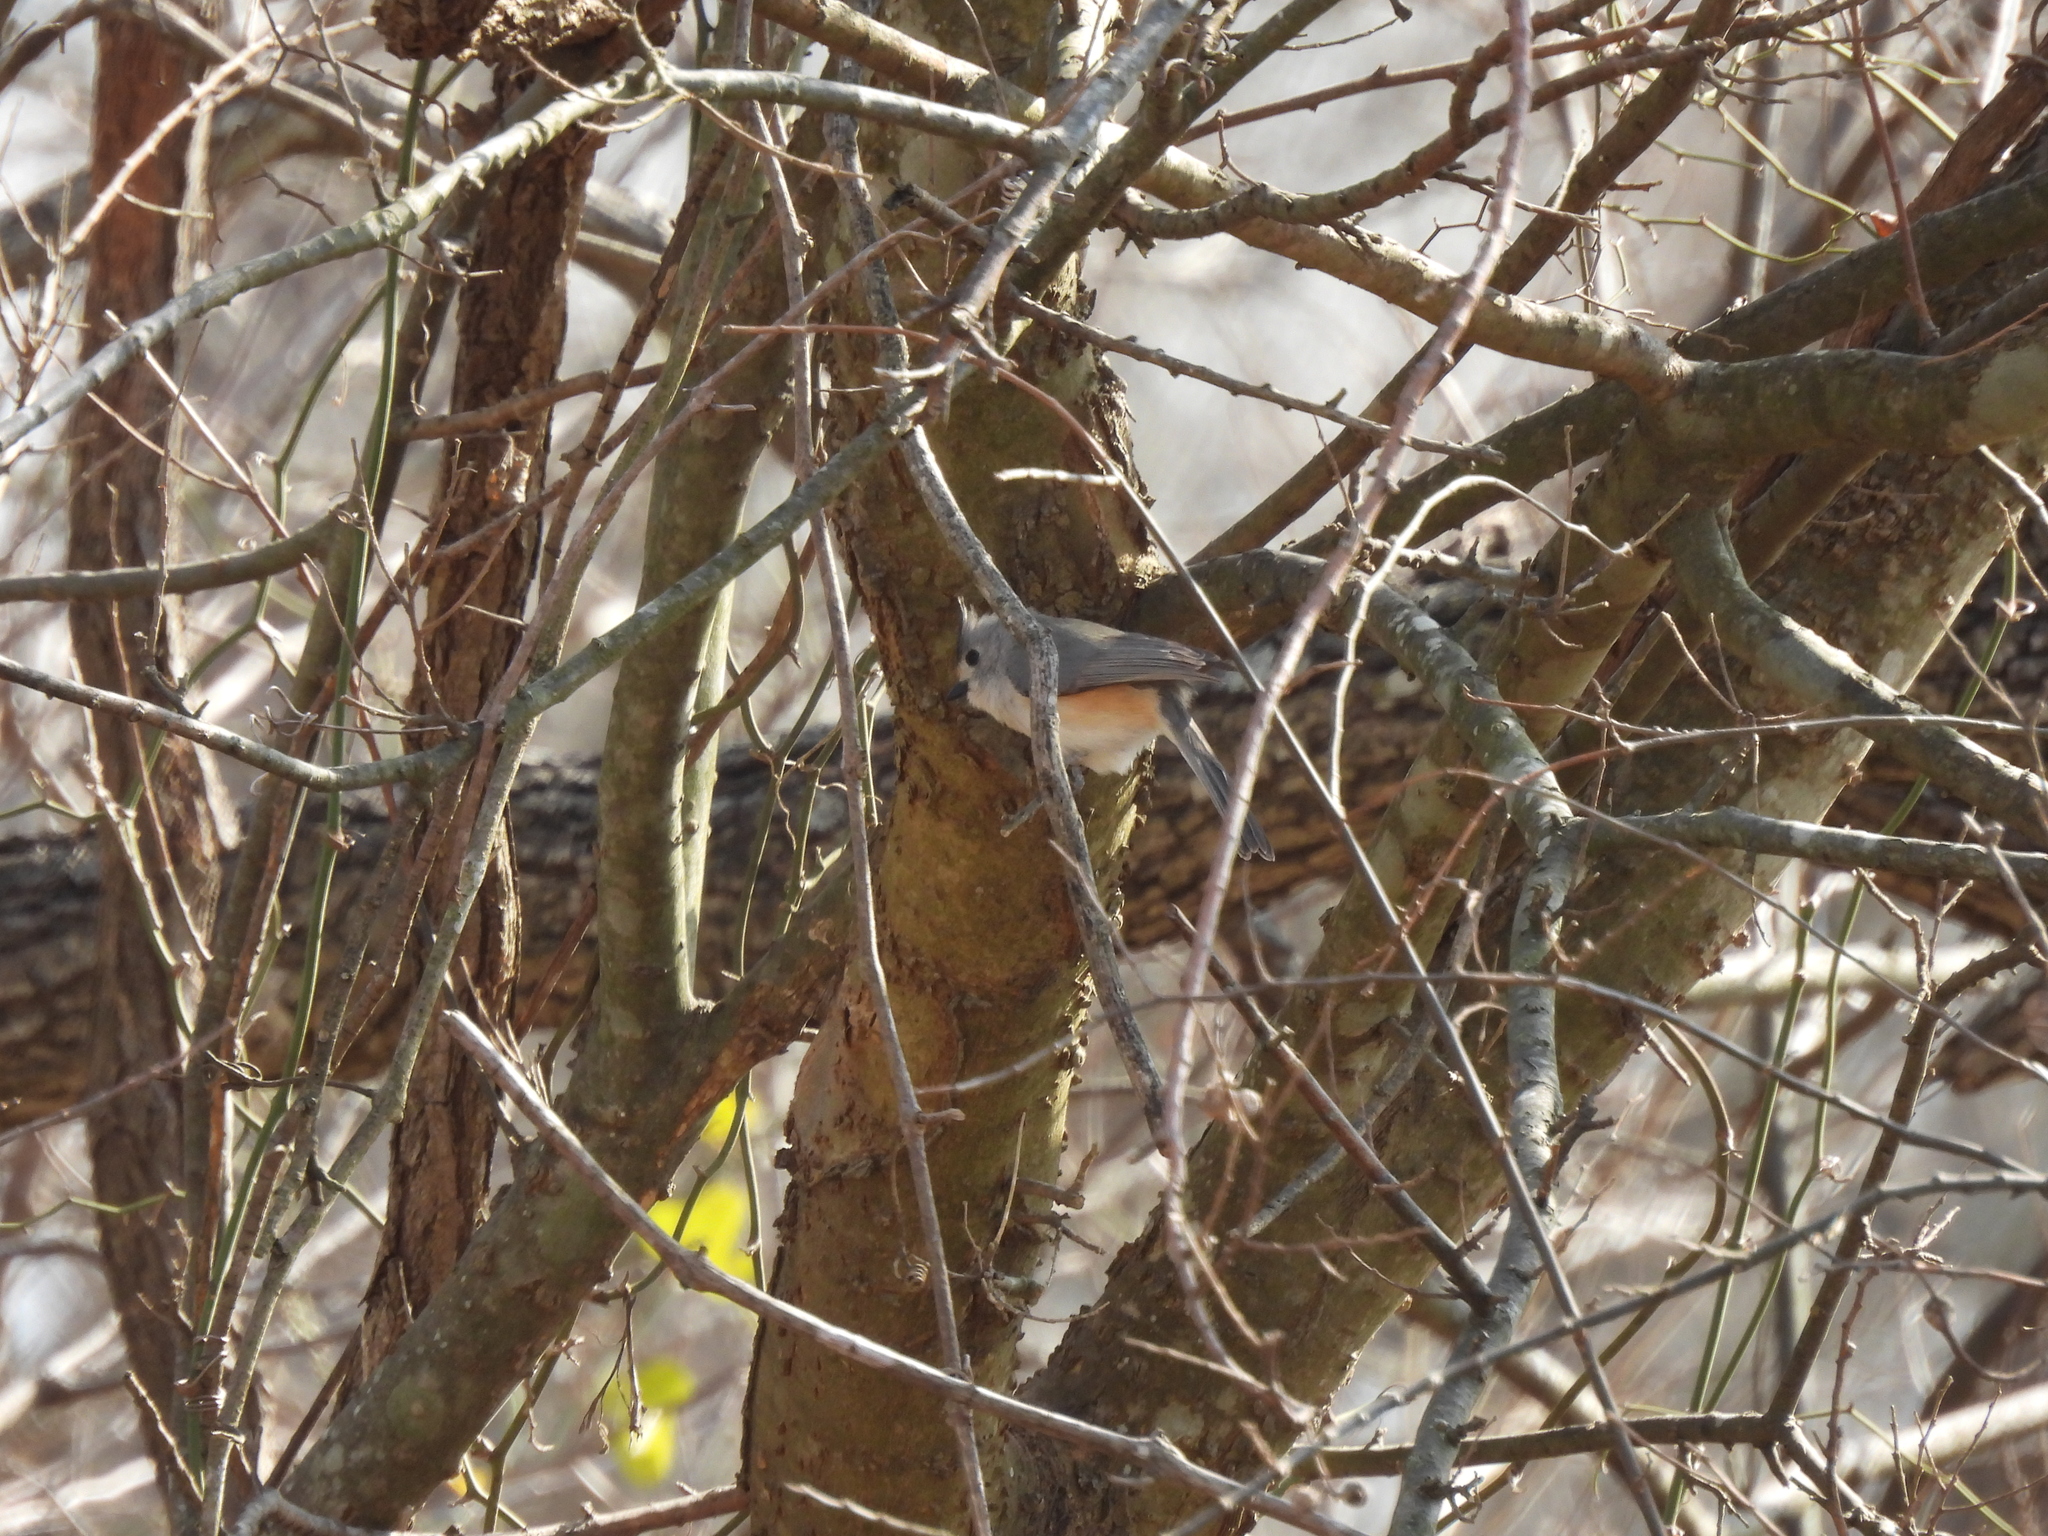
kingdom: Animalia
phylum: Chordata
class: Aves
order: Passeriformes
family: Paridae
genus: Baeolophus
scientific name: Baeolophus atricristatus
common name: Black-crested titmouse
